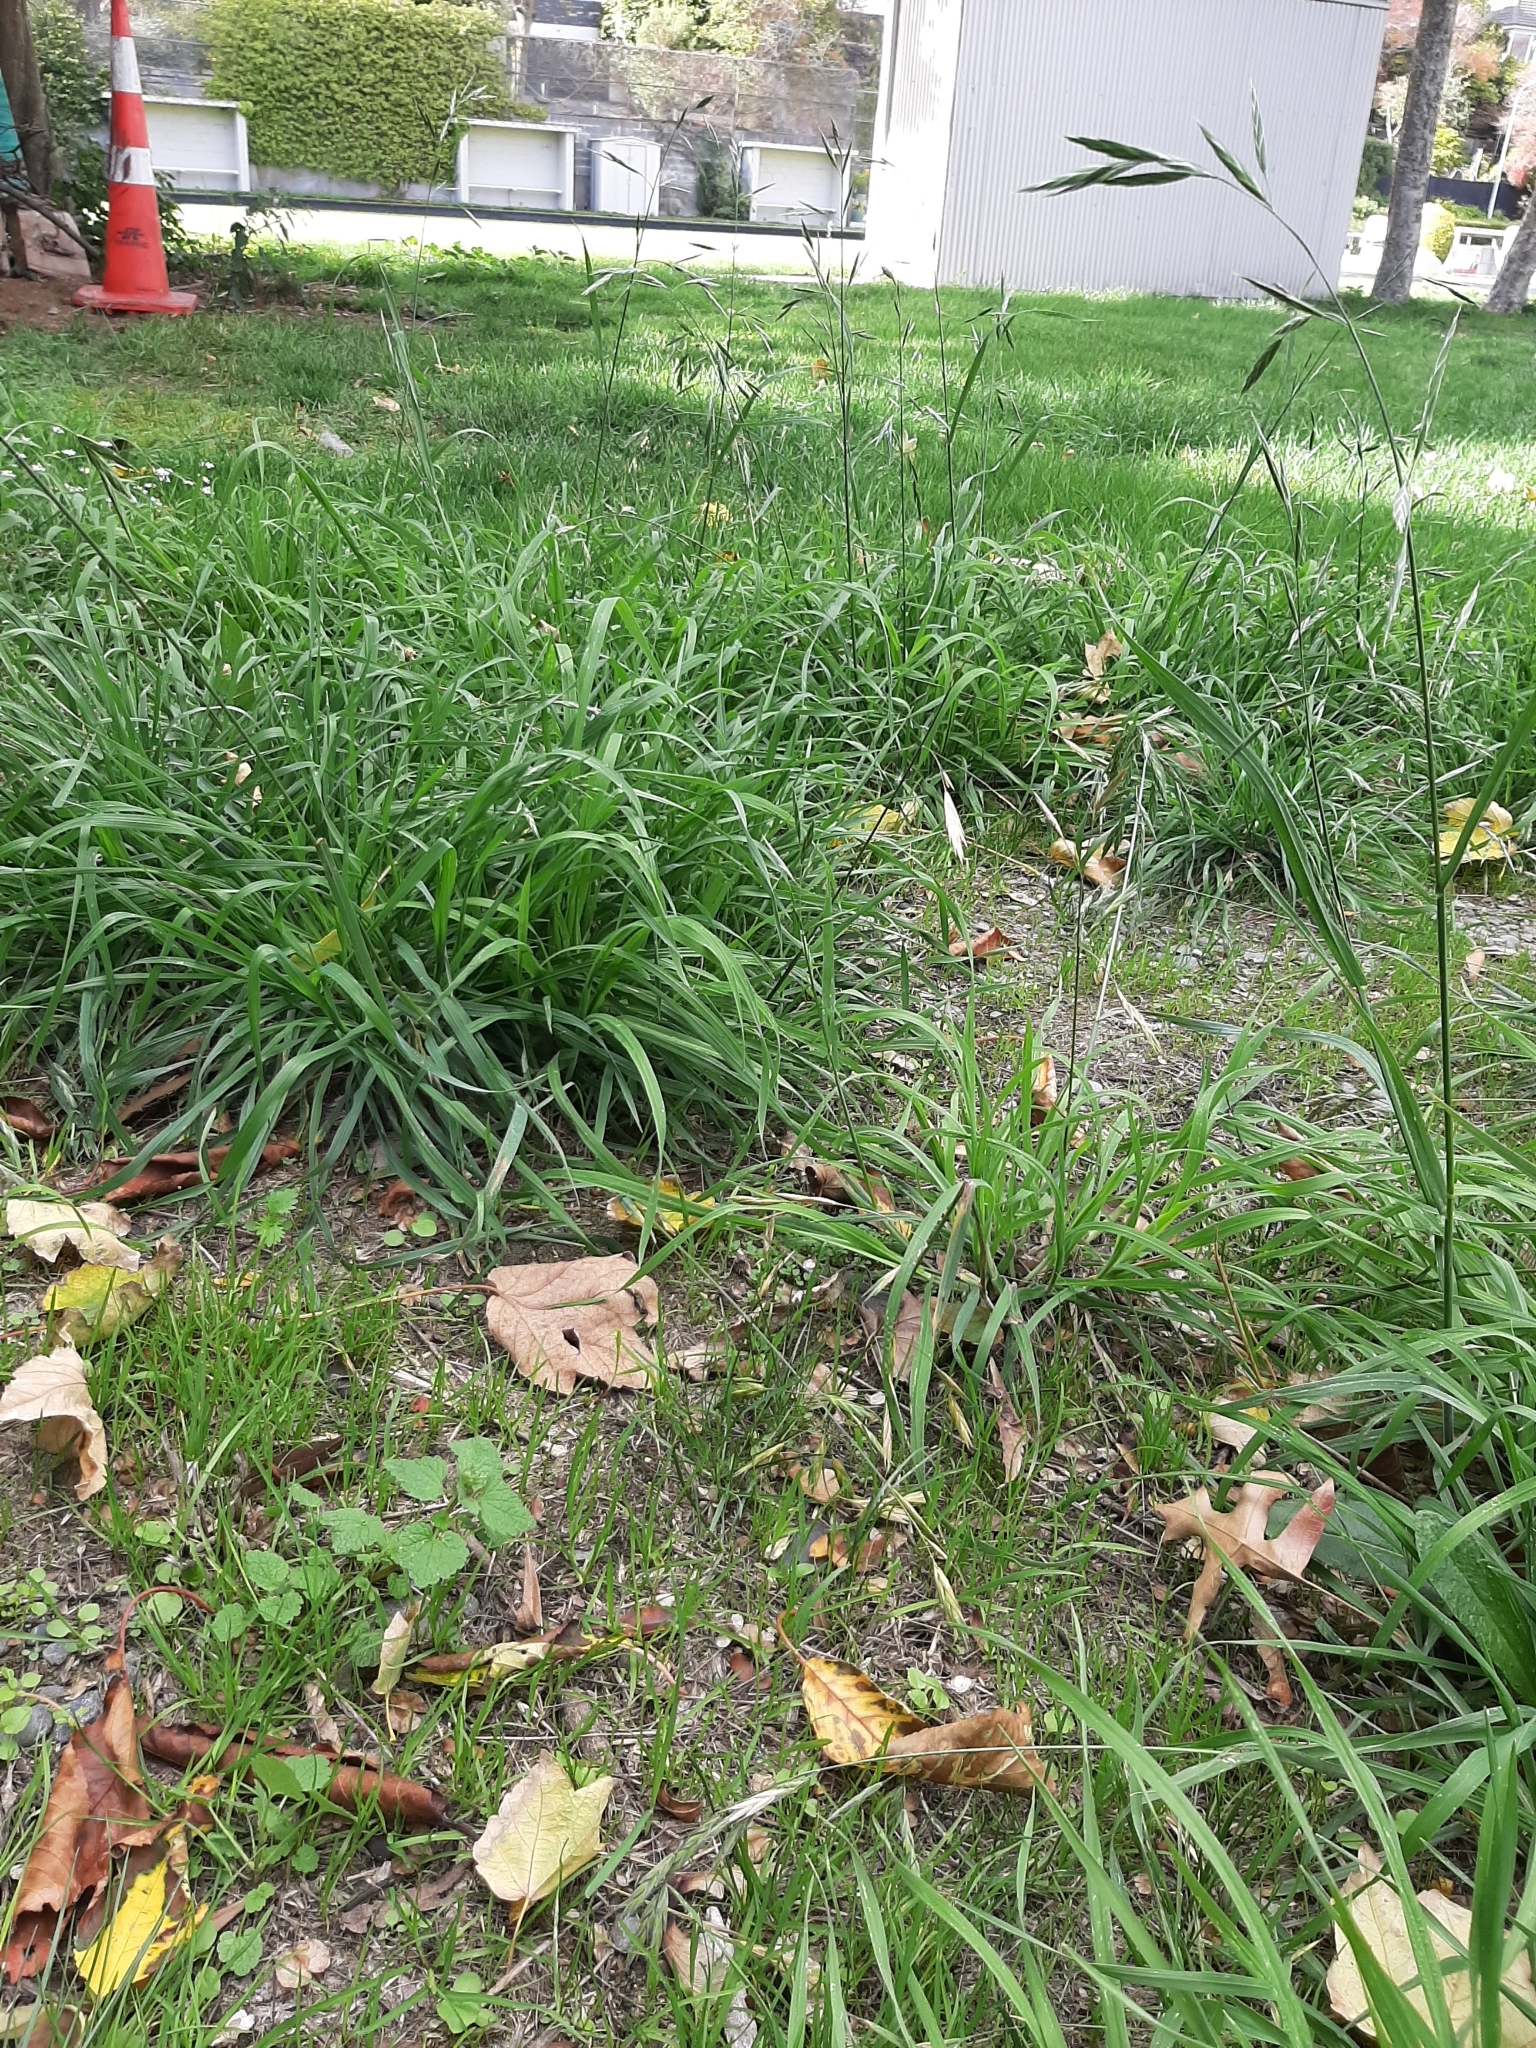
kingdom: Plantae
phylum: Tracheophyta
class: Liliopsida
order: Poales
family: Poaceae
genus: Bromus
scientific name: Bromus catharticus
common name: Rescuegrass
